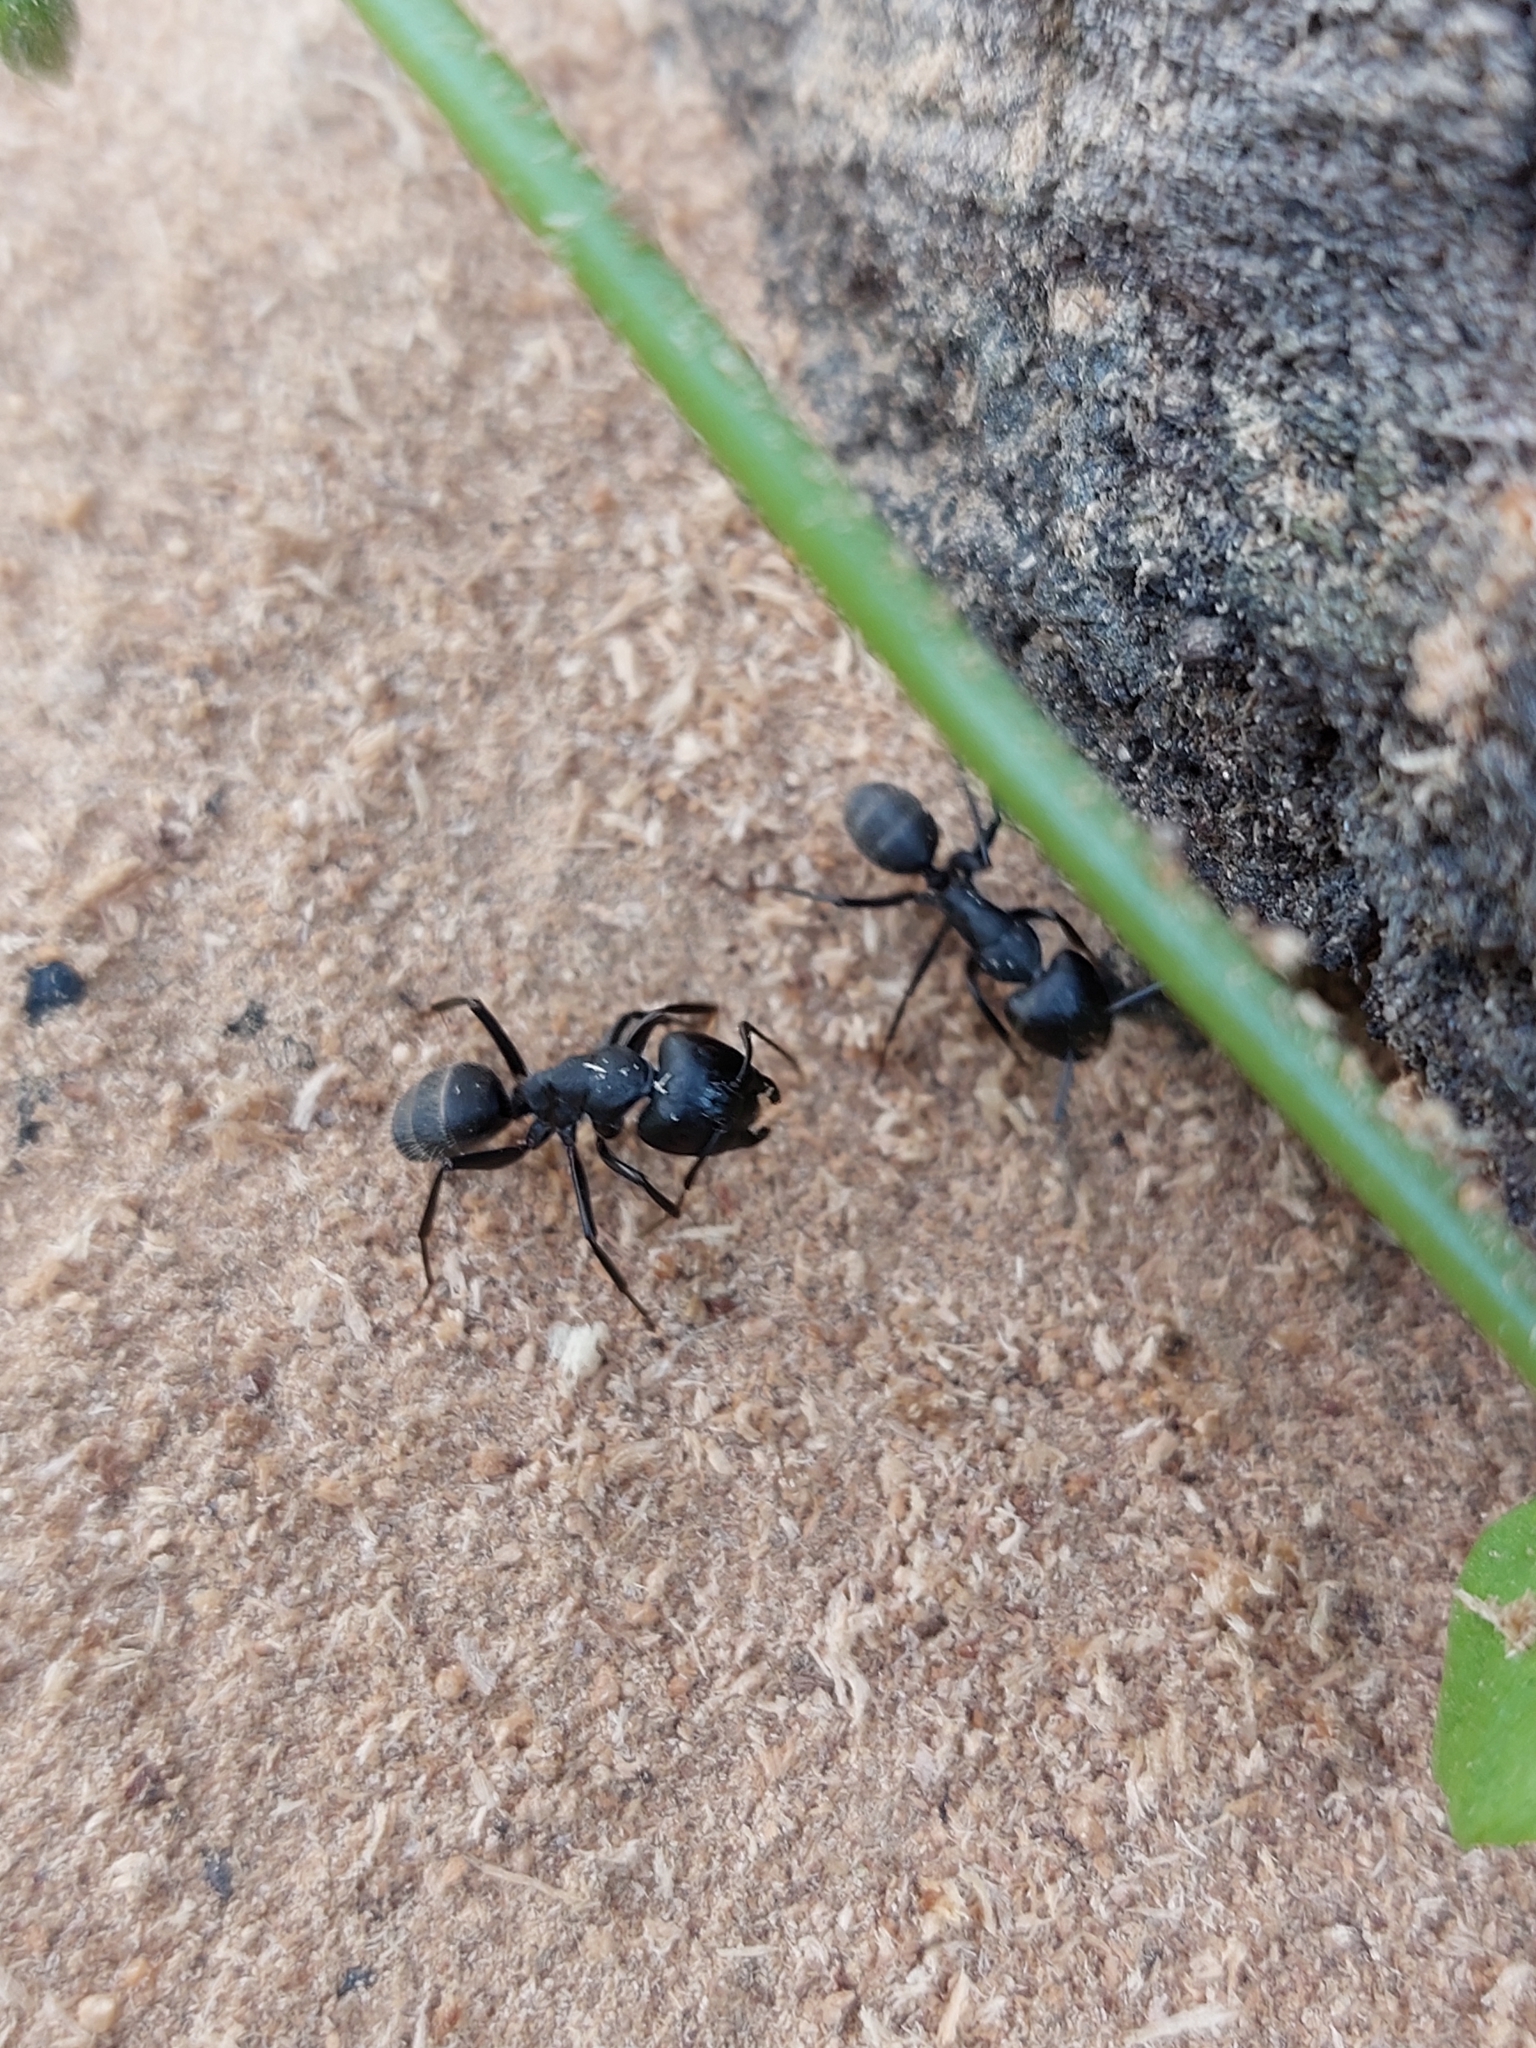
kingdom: Animalia
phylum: Arthropoda
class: Insecta
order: Hymenoptera
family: Formicidae
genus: Camponotus
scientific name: Camponotus vagus
